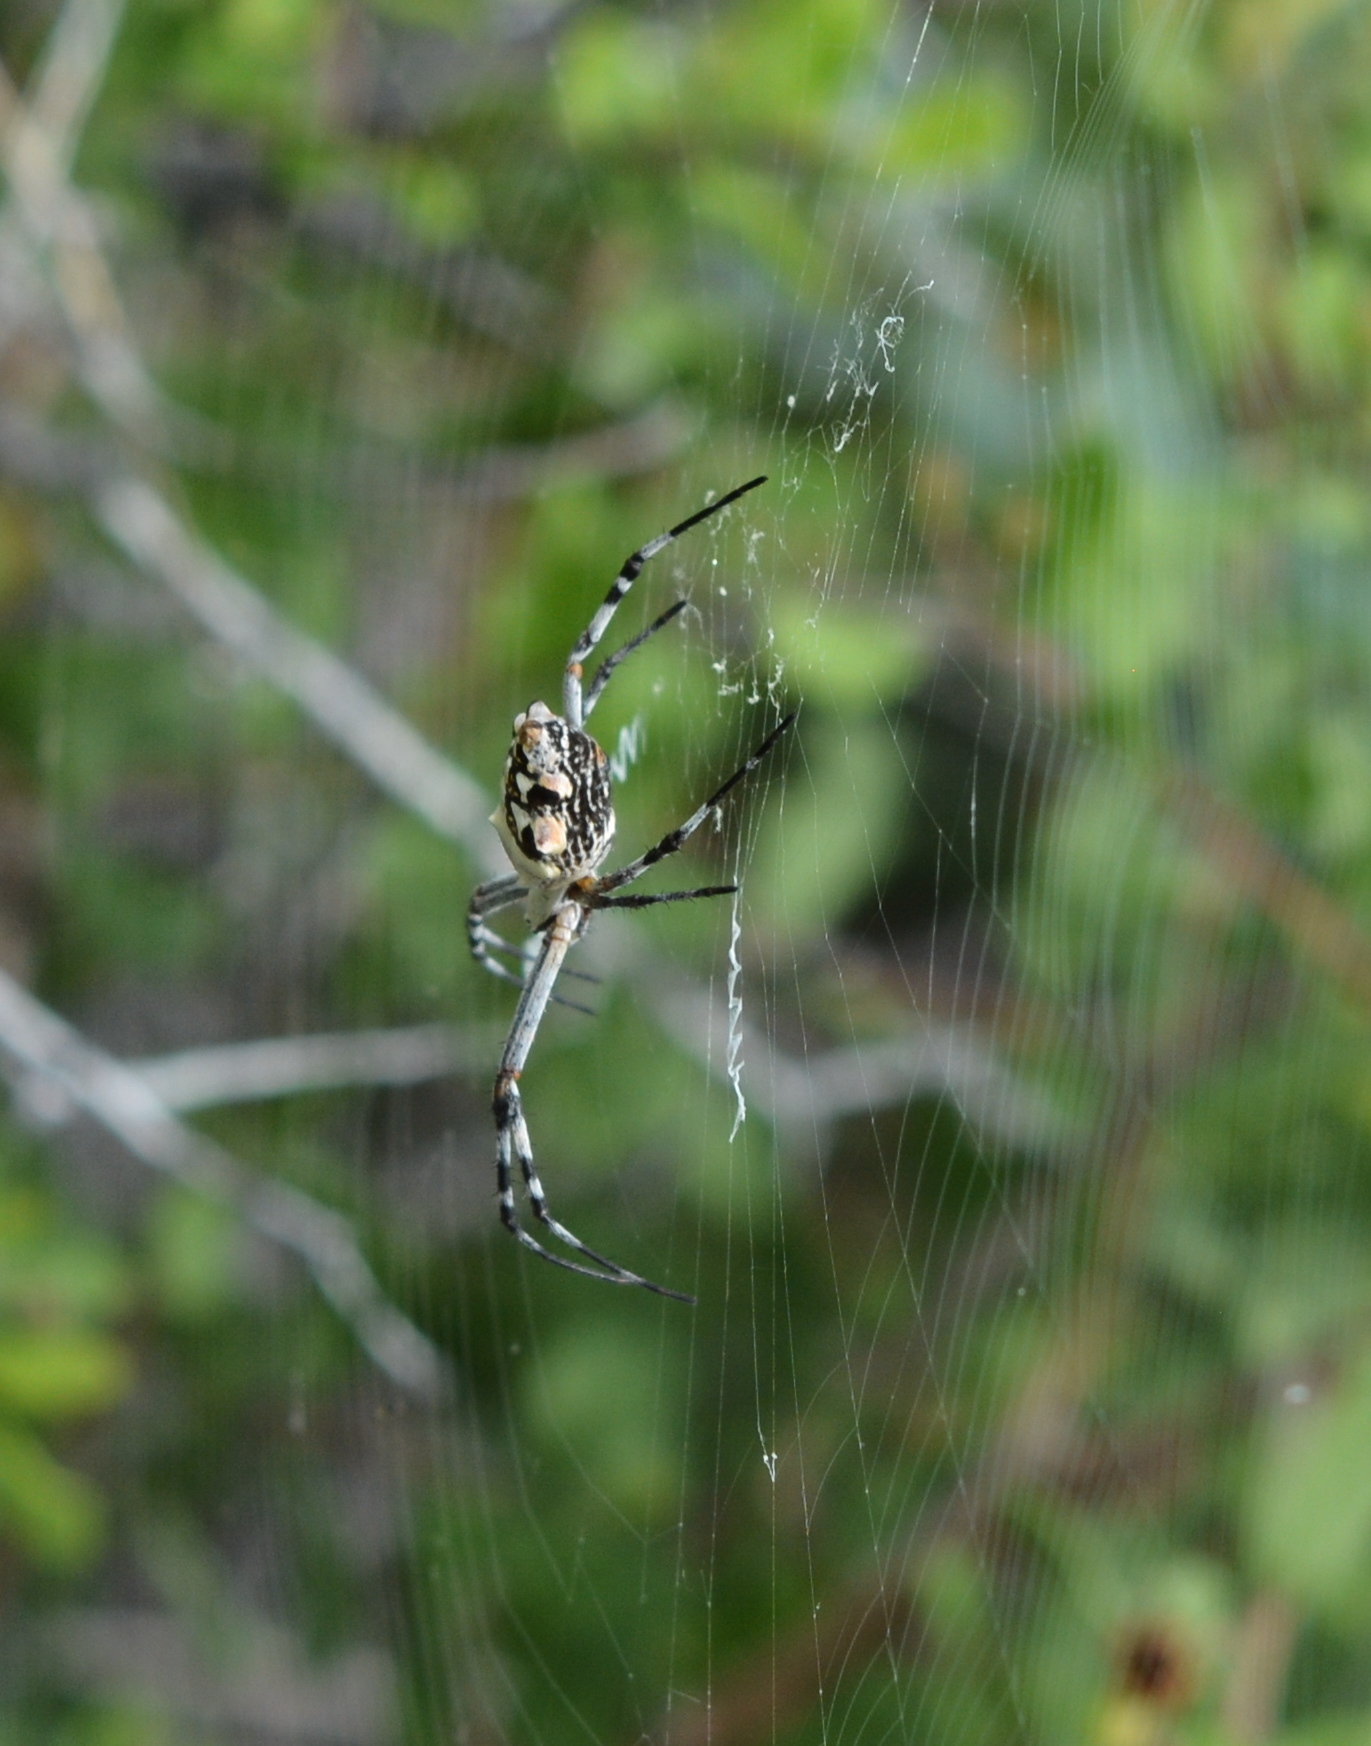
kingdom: Animalia
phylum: Arthropoda
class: Arachnida
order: Araneae
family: Araneidae
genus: Argiope
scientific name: Argiope argentata
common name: Orb weavers
